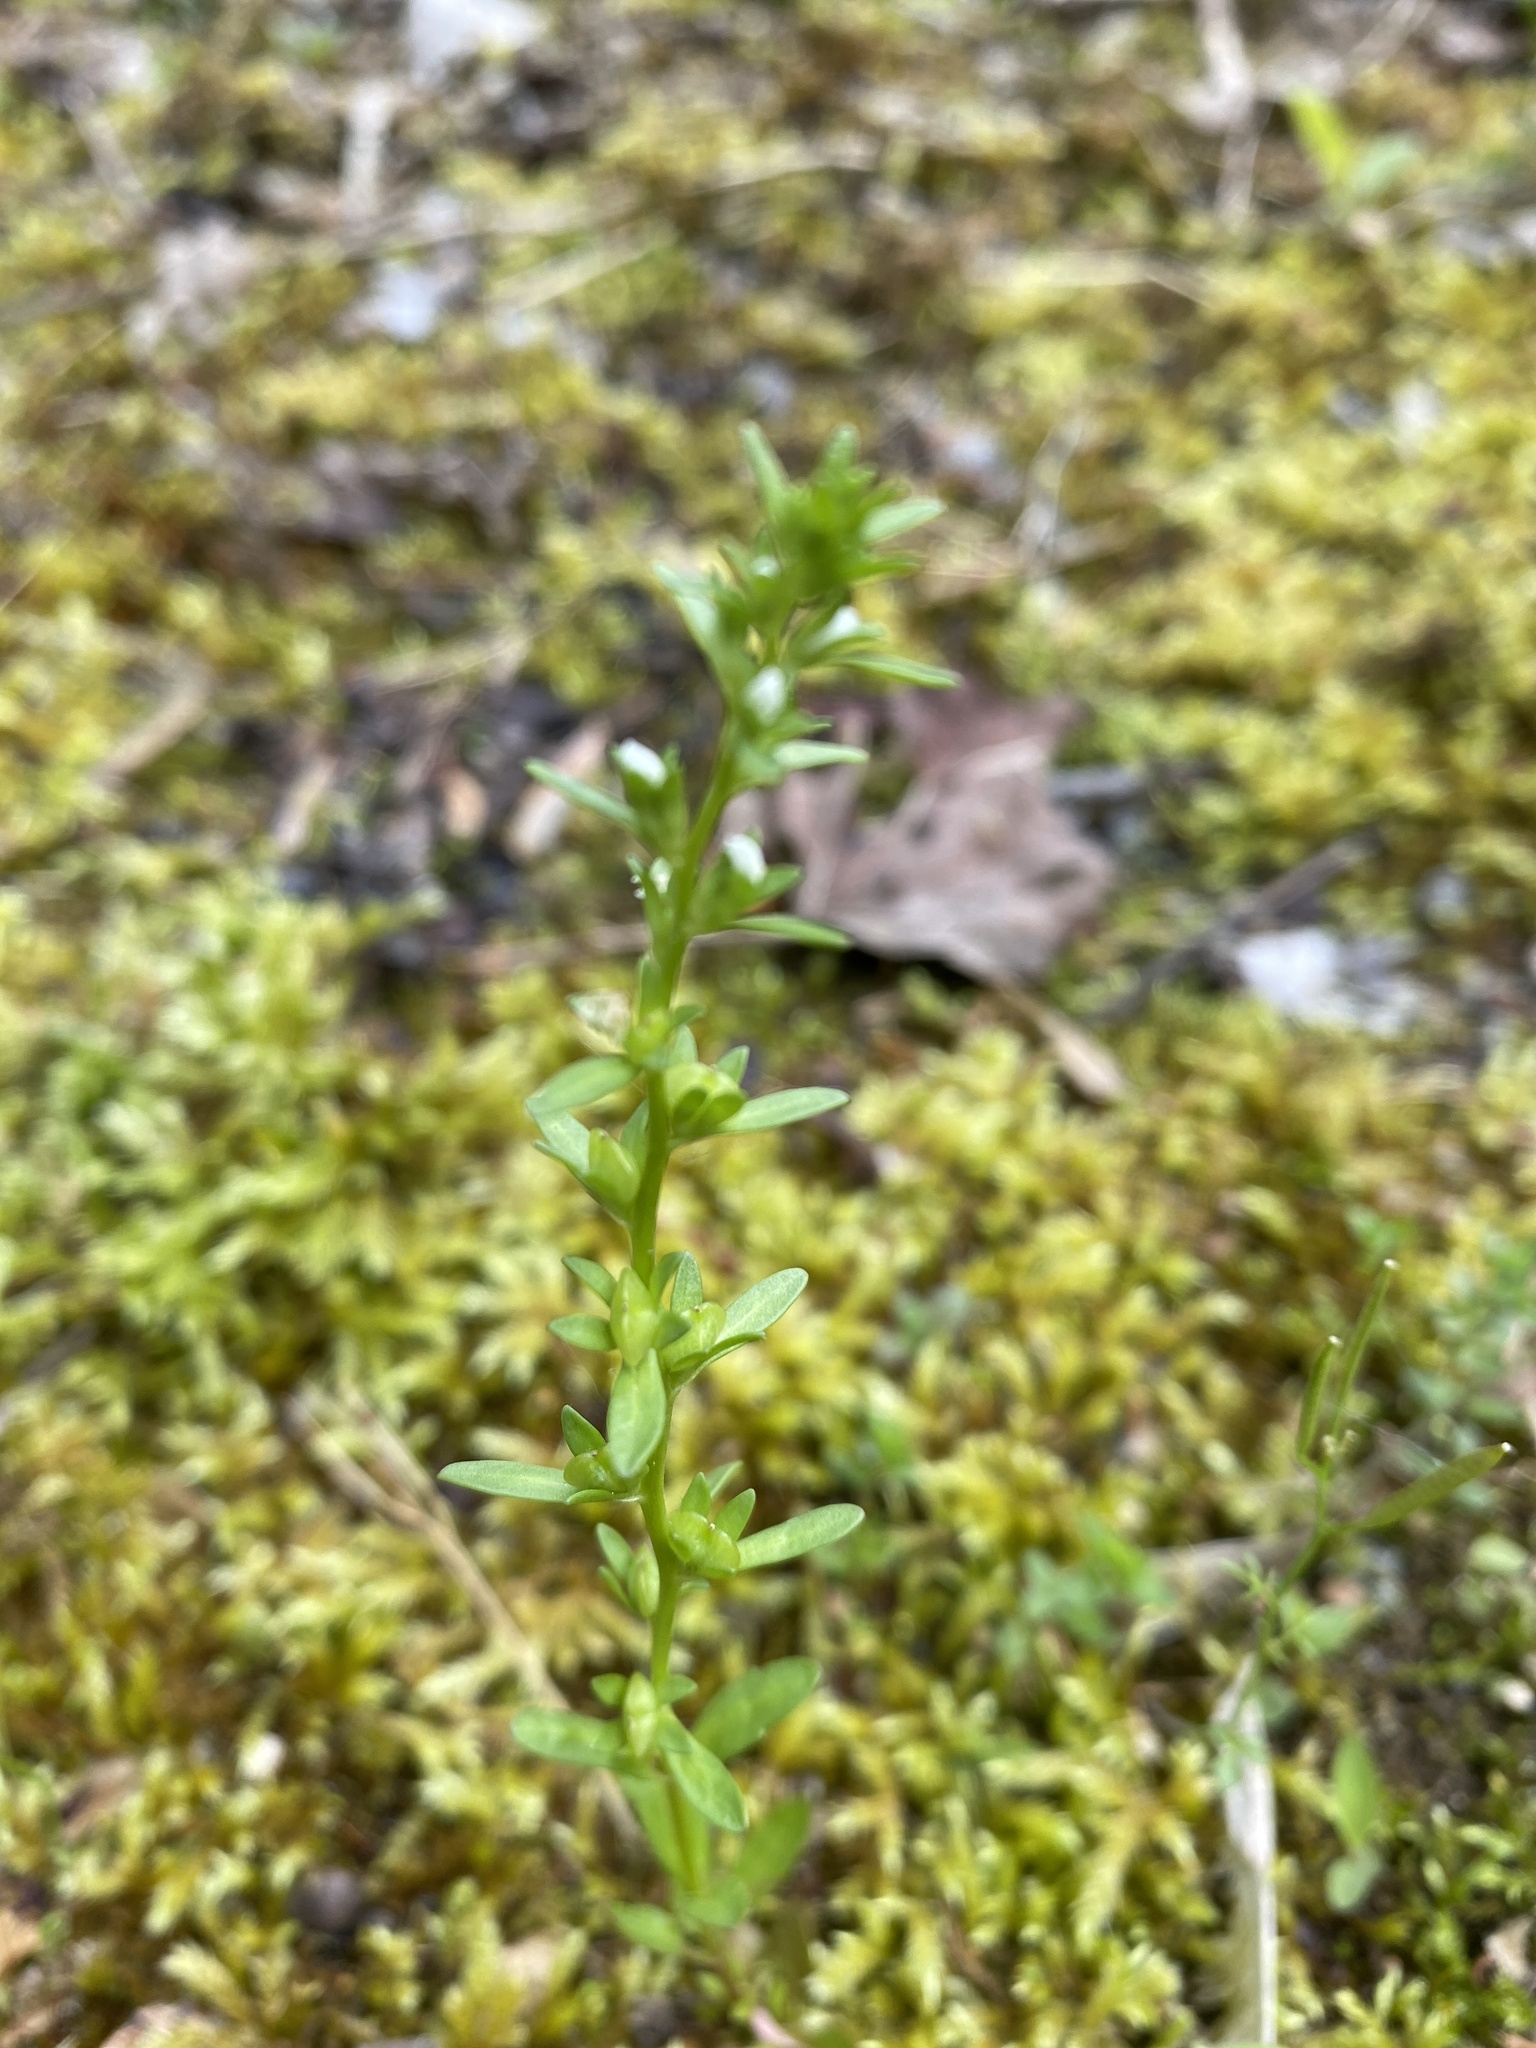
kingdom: Plantae
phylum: Tracheophyta
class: Magnoliopsida
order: Lamiales
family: Plantaginaceae
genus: Veronica
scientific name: Veronica peregrina
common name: Neckweed
